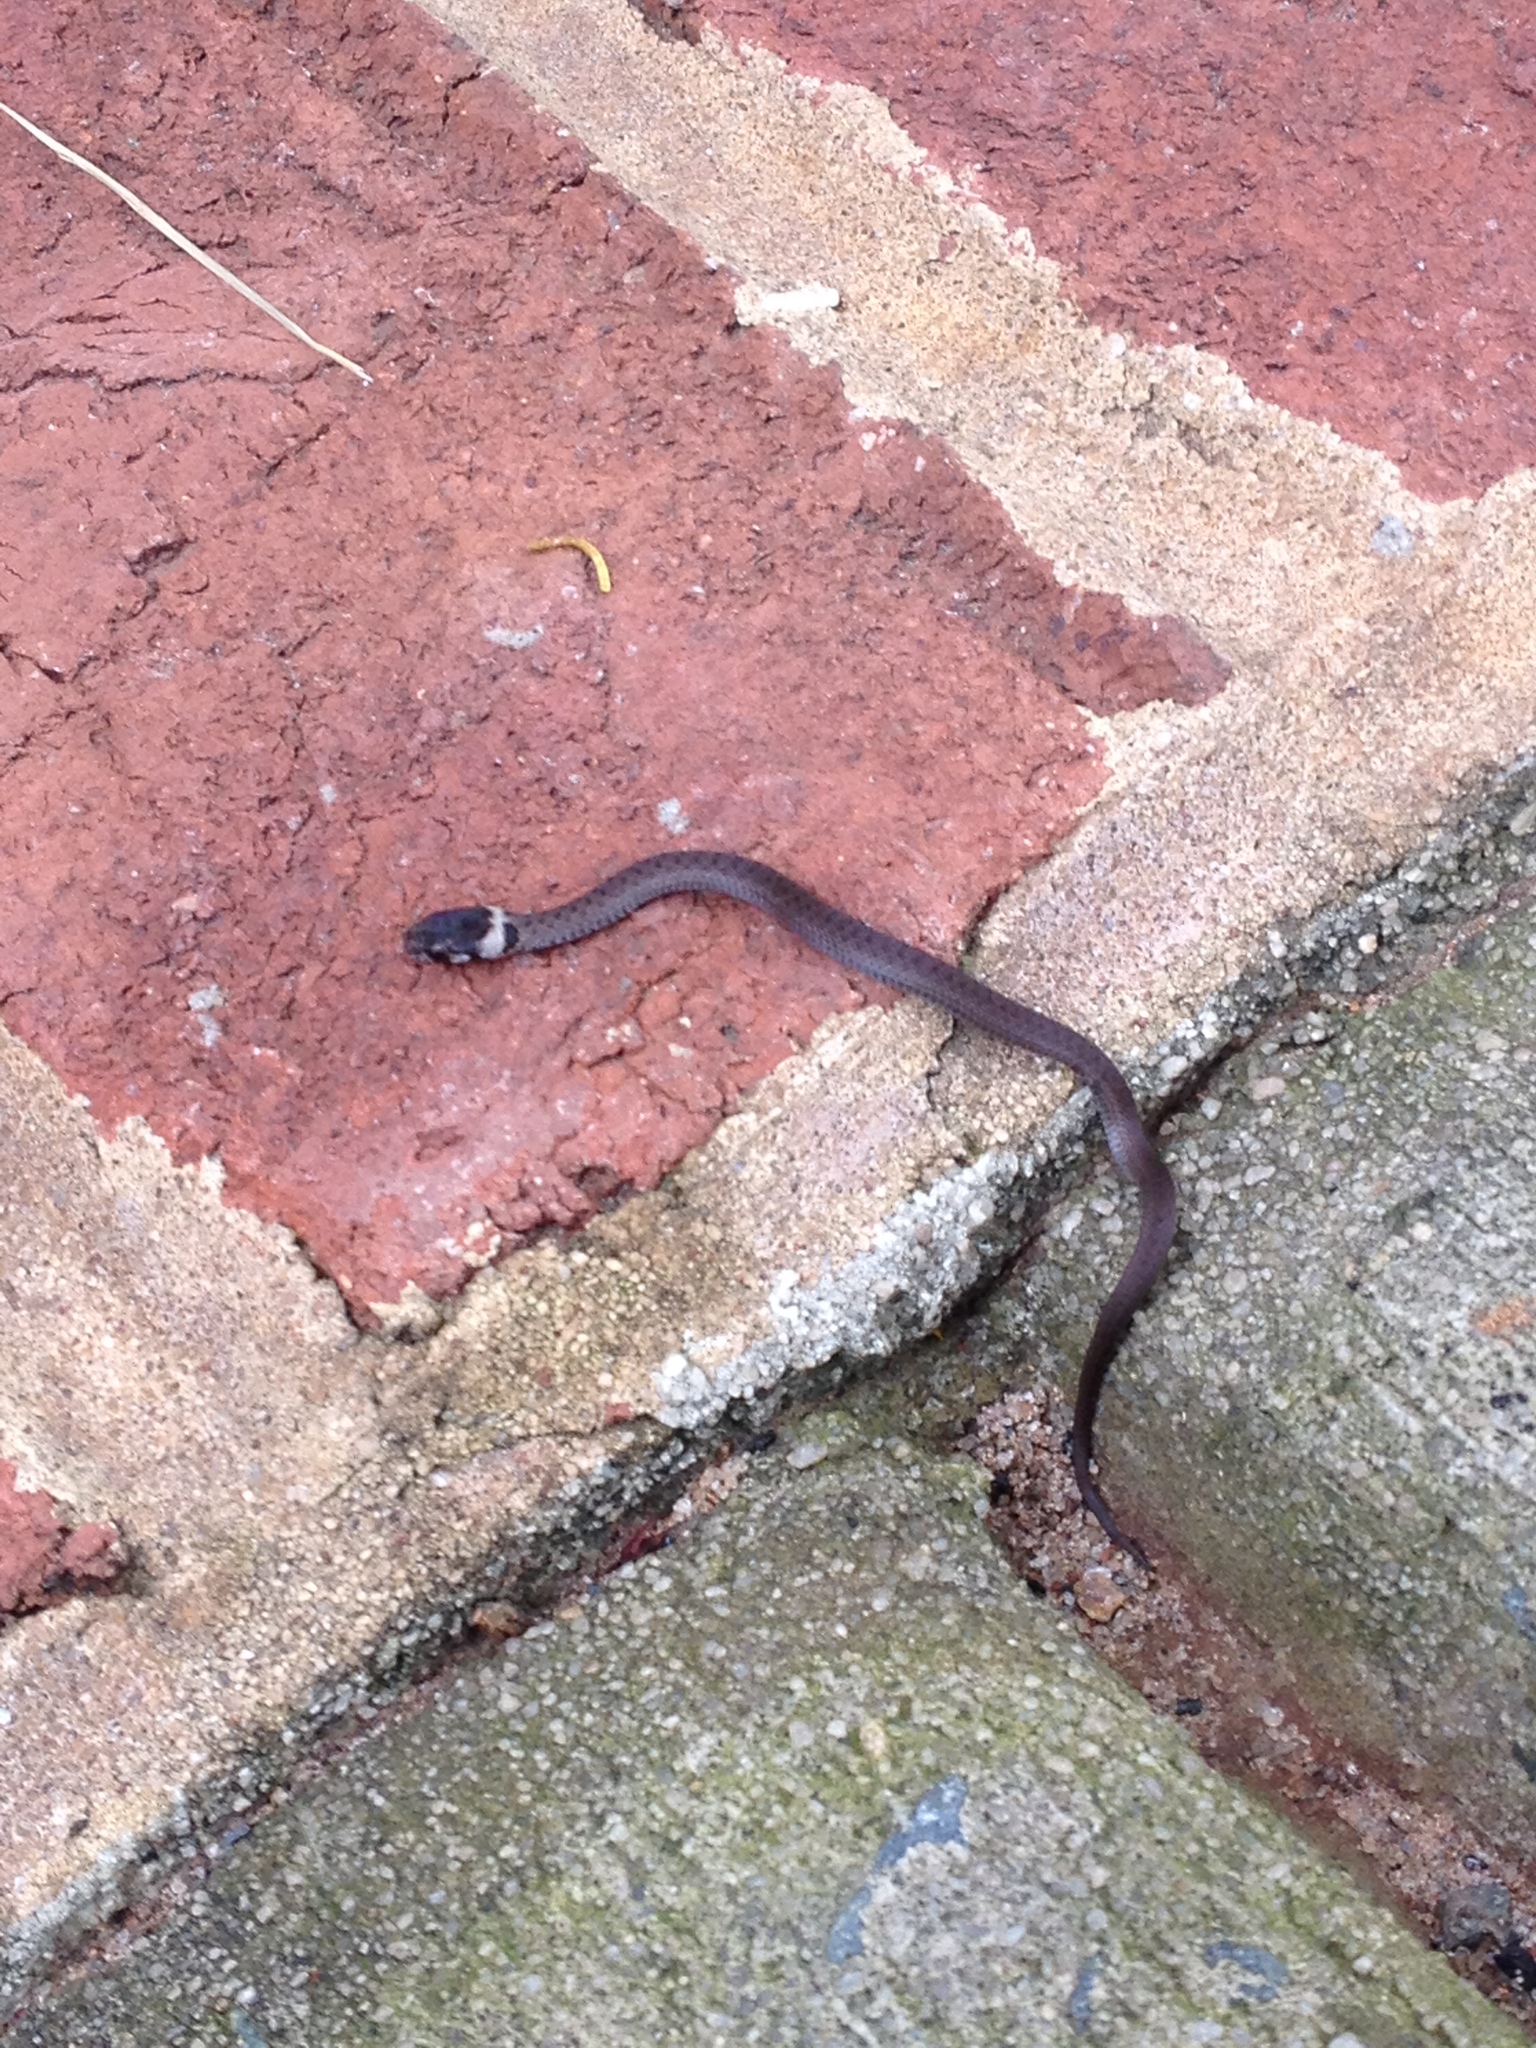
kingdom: Animalia
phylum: Chordata
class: Squamata
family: Colubridae
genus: Storeria
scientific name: Storeria dekayi
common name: (dekay’s) brown snake
